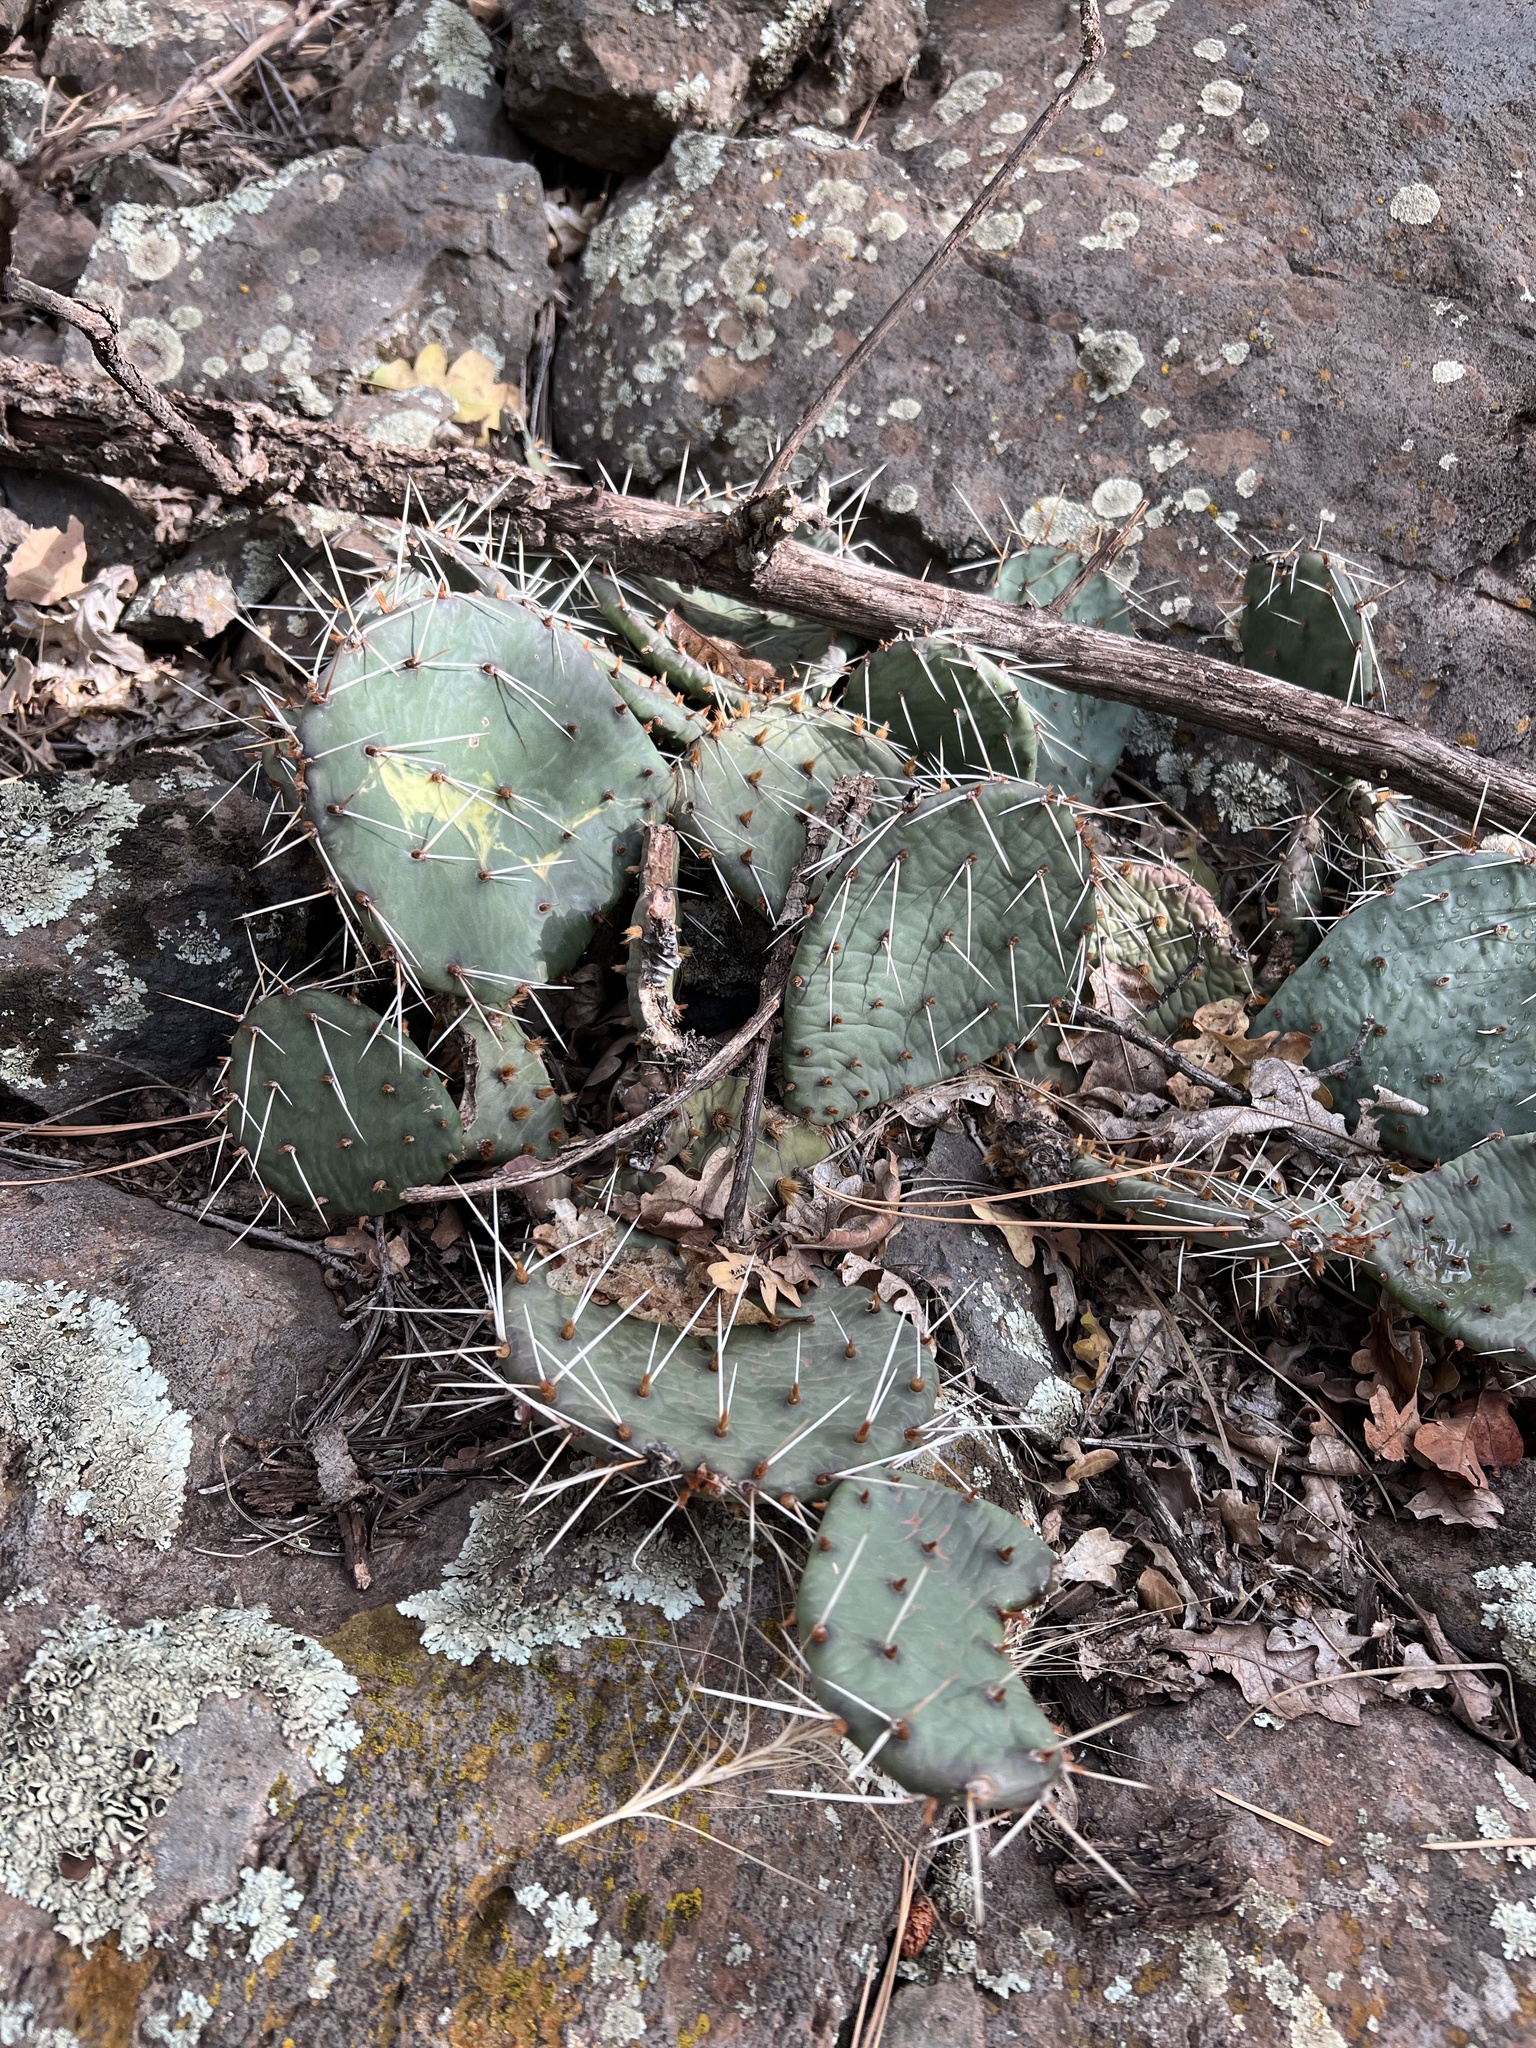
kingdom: Plantae
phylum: Tracheophyta
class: Magnoliopsida
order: Caryophyllales
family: Cactaceae
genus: Opuntia
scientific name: Opuntia macrorhiza
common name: Grassland pricklypear
